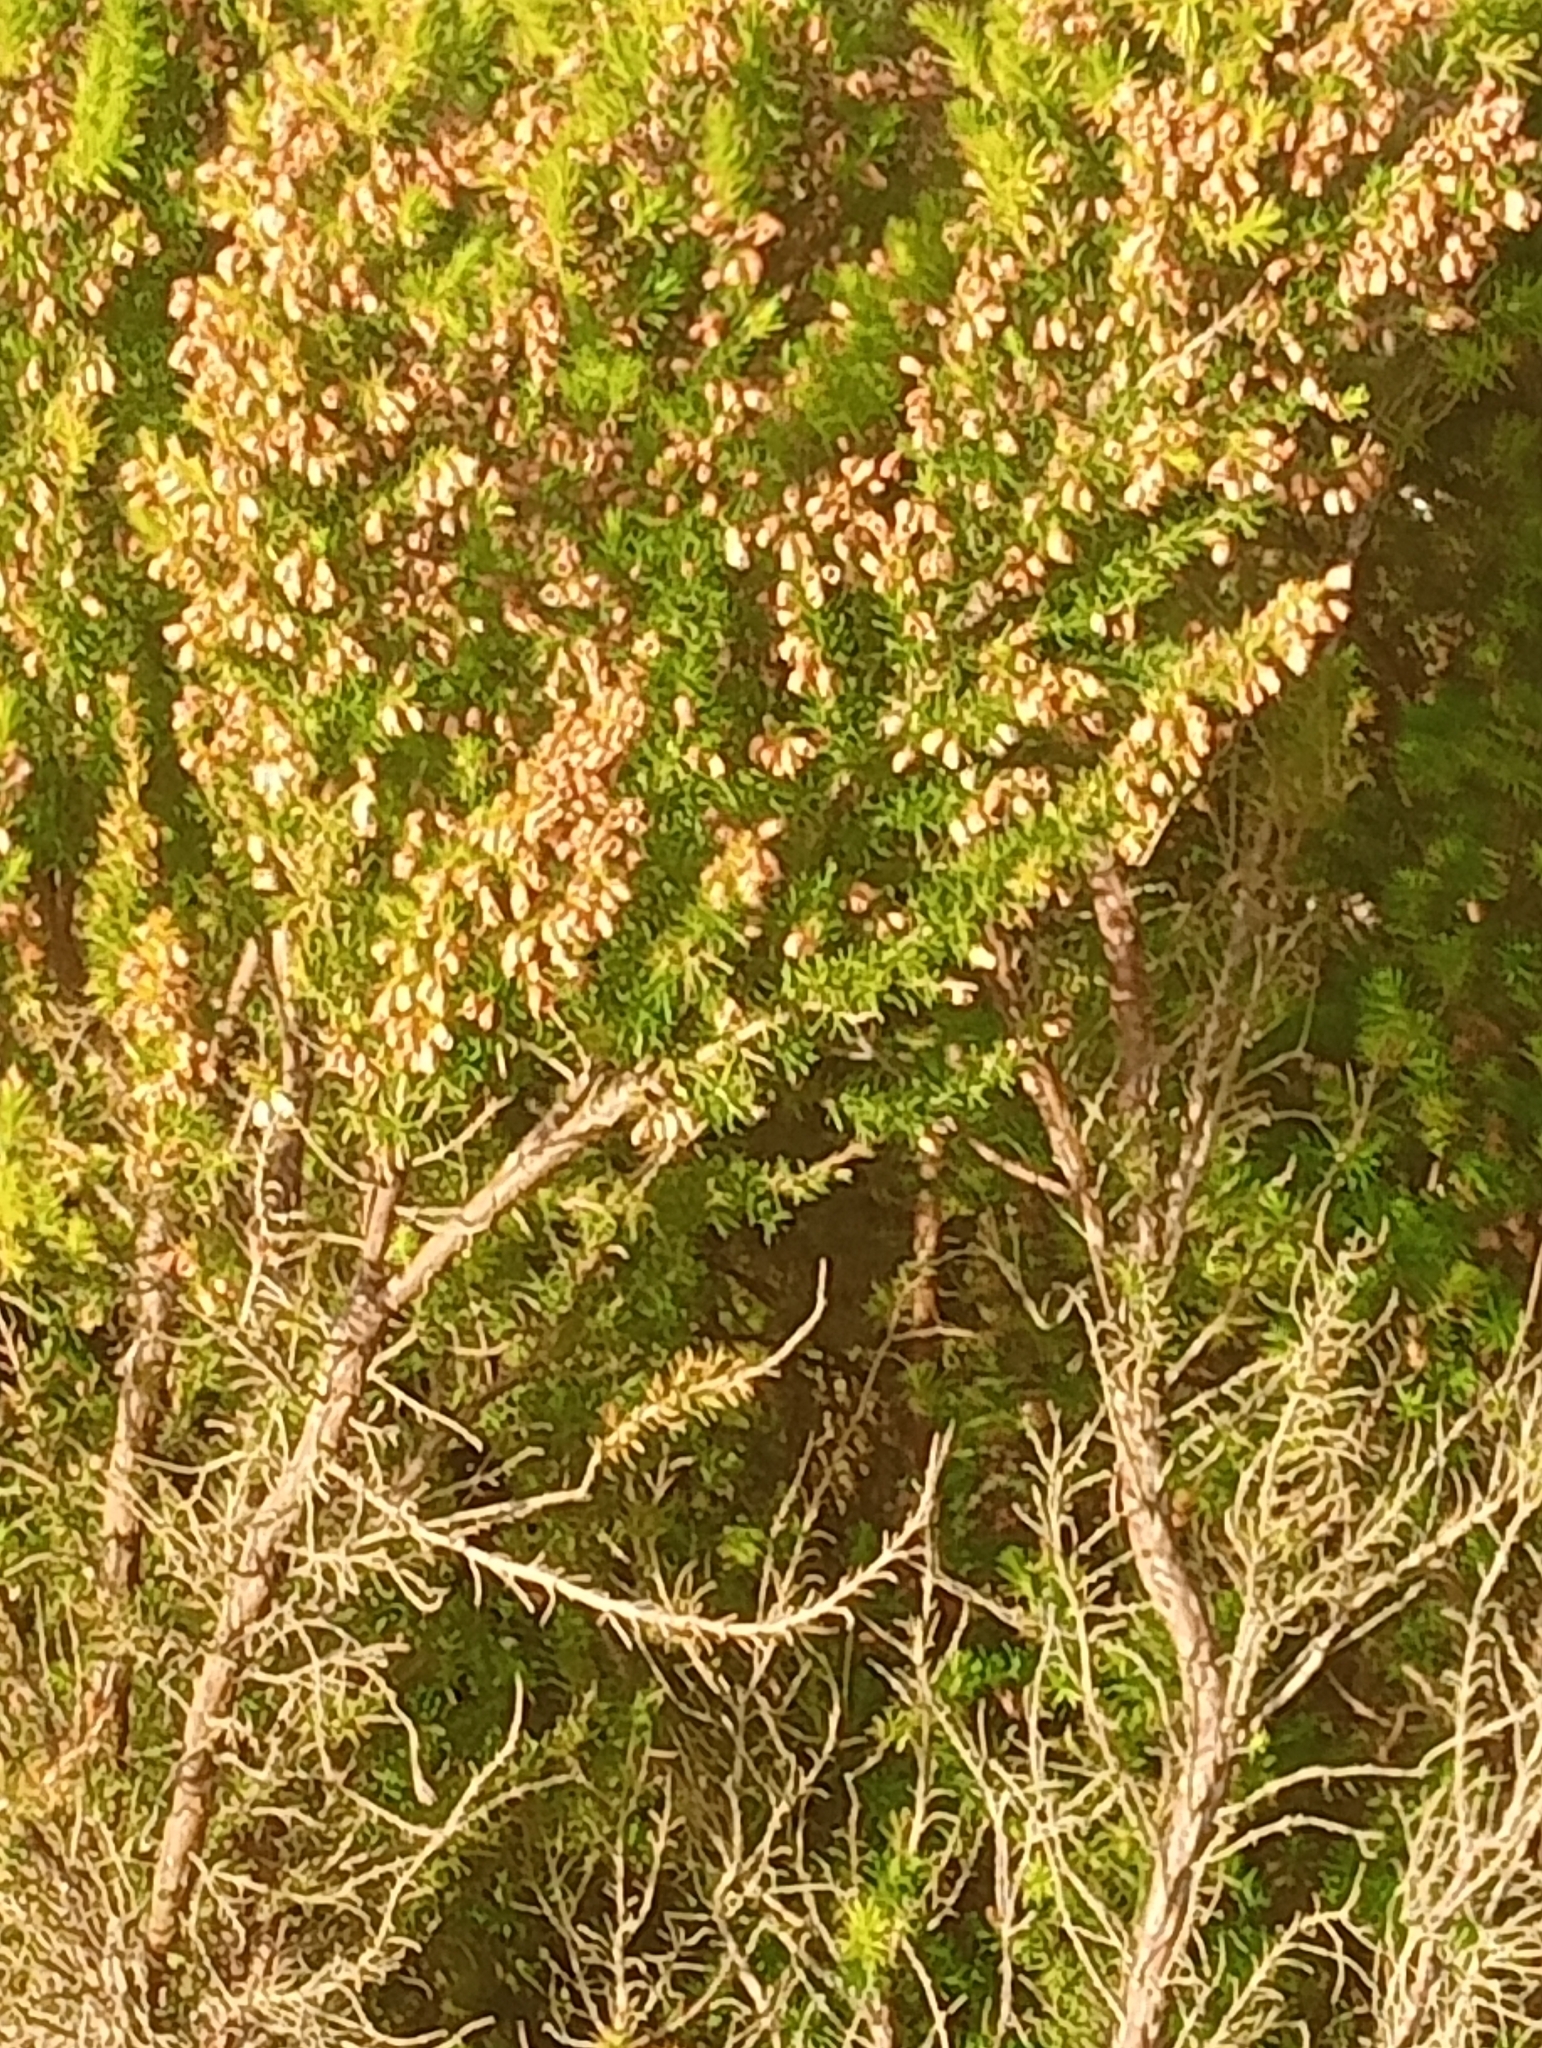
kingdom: Plantae
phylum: Tracheophyta
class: Magnoliopsida
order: Ericales
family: Ericaceae
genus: Erica
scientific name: Erica lusitanica
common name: Spanish heath
